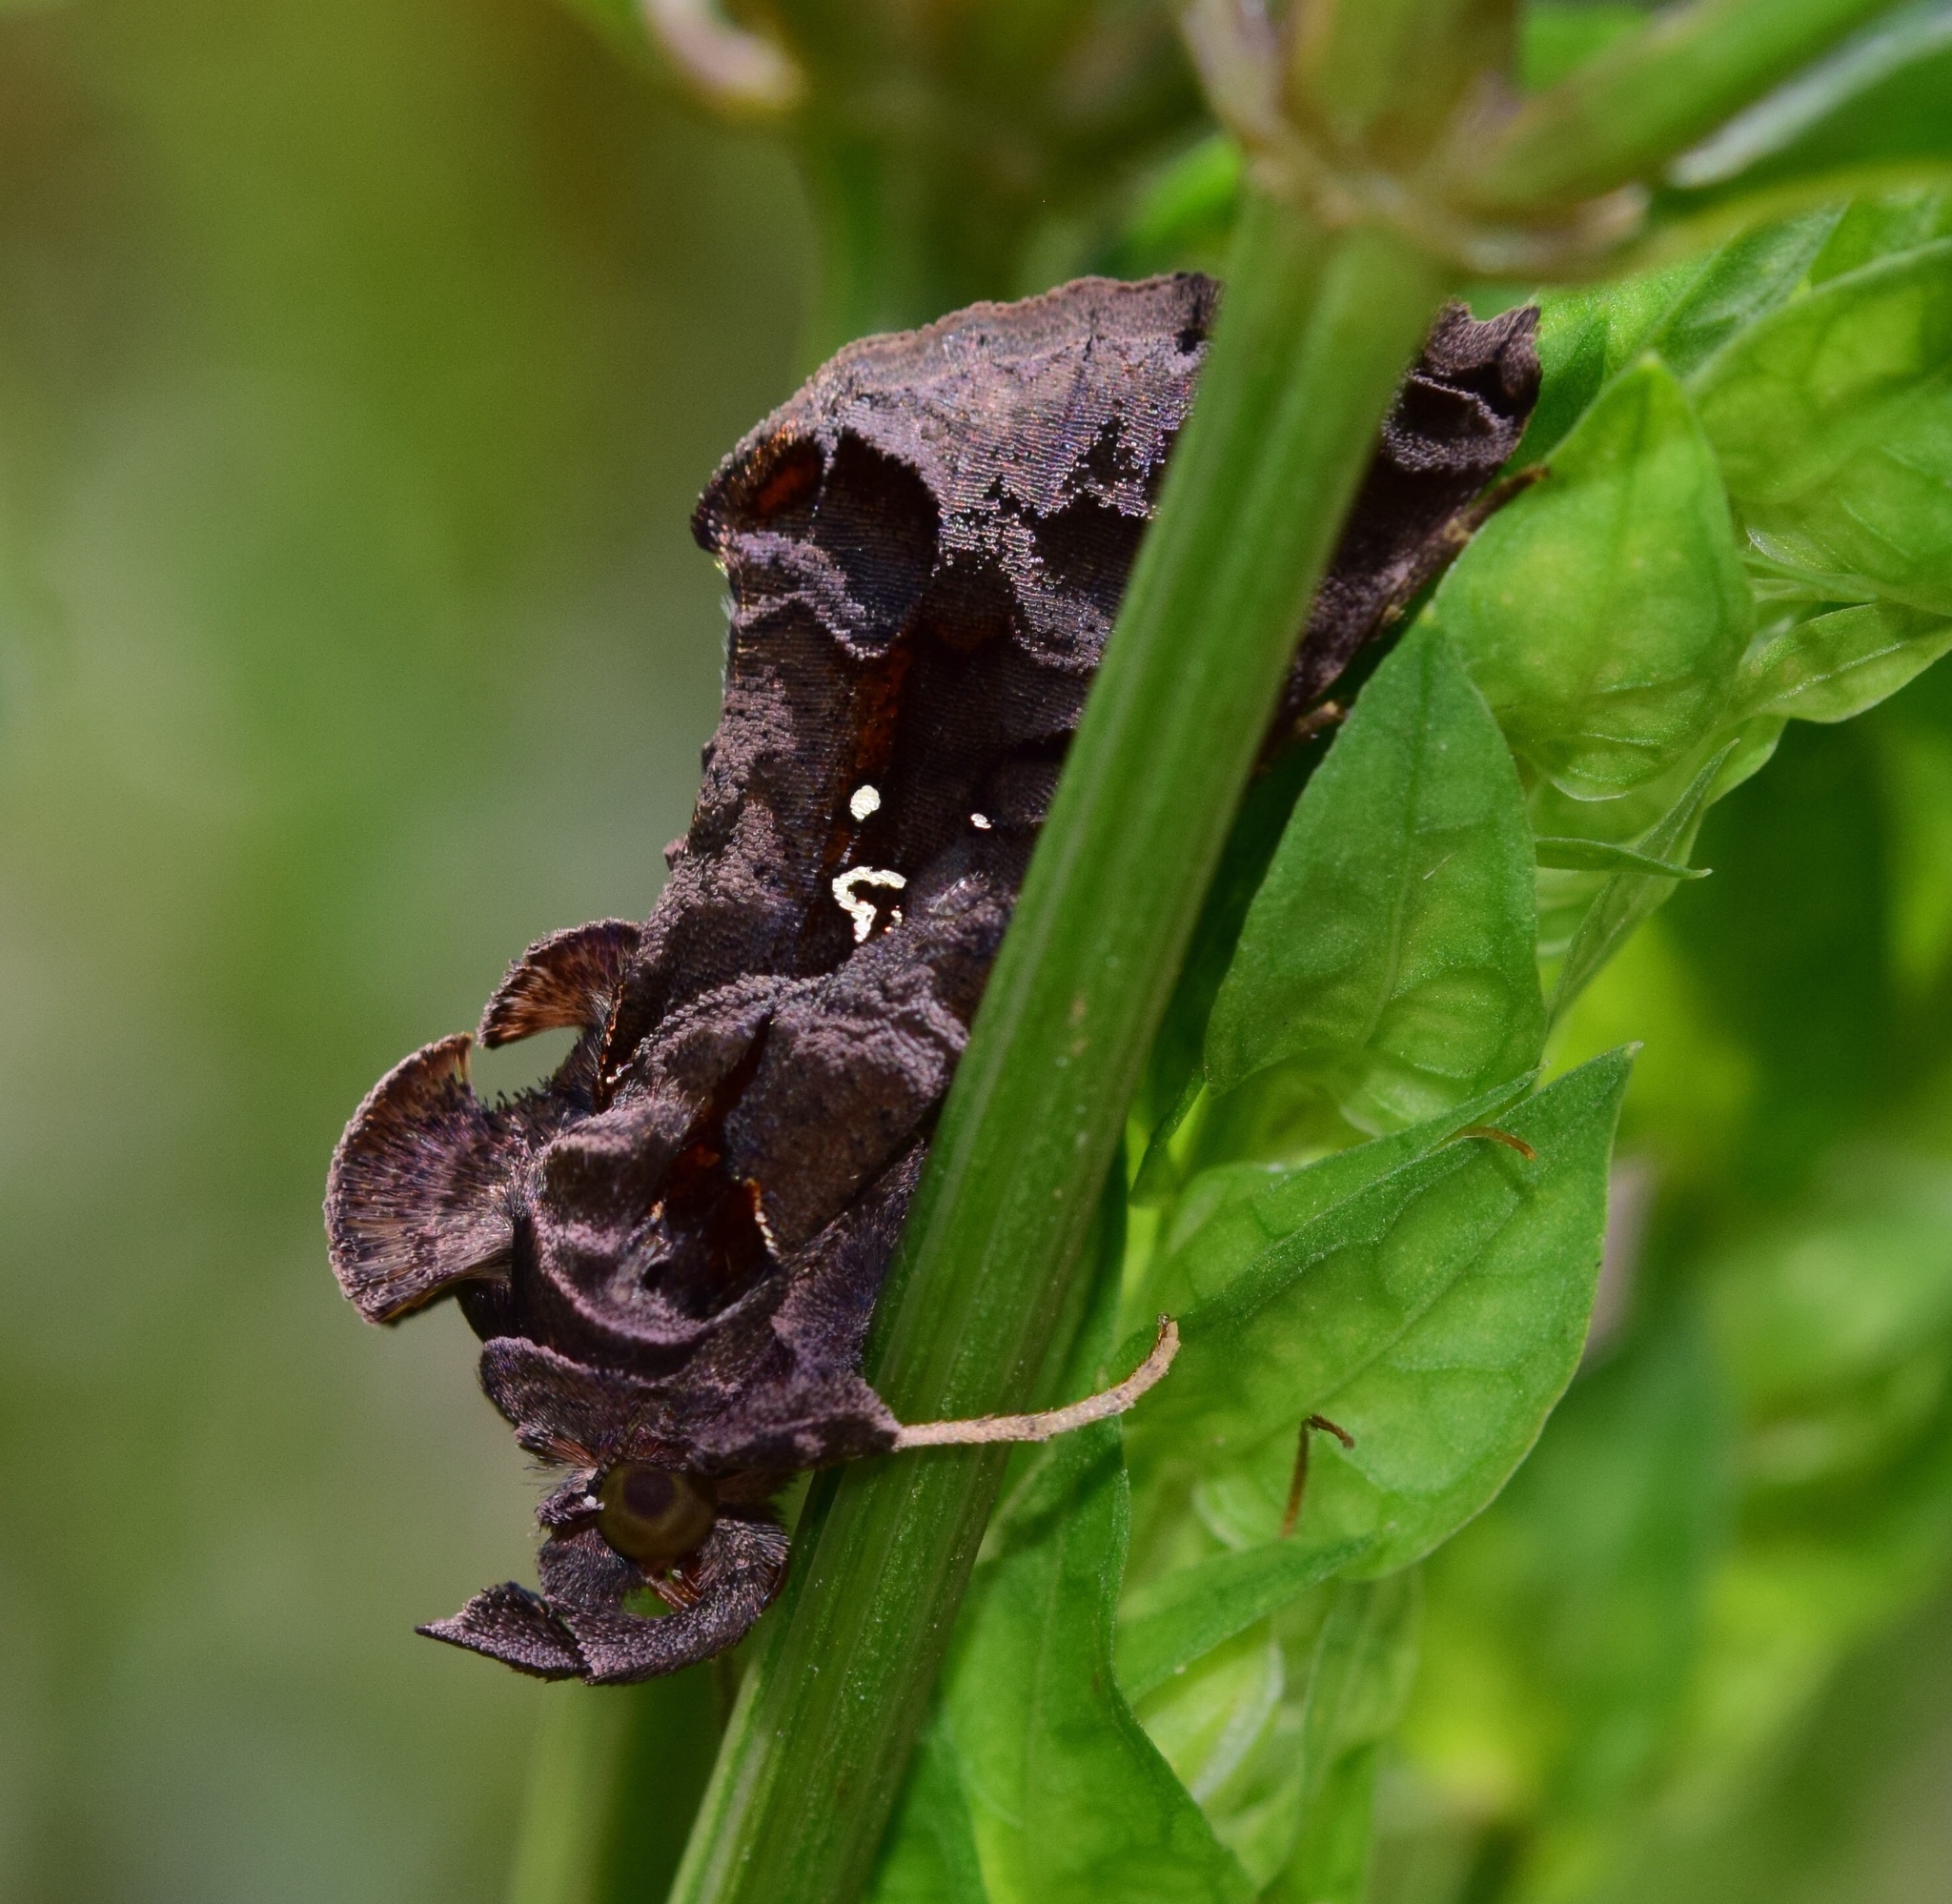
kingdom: Animalia
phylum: Arthropoda
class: Insecta
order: Lepidoptera
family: Noctuidae
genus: Plusiopalpa
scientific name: Plusiopalpa dichora
